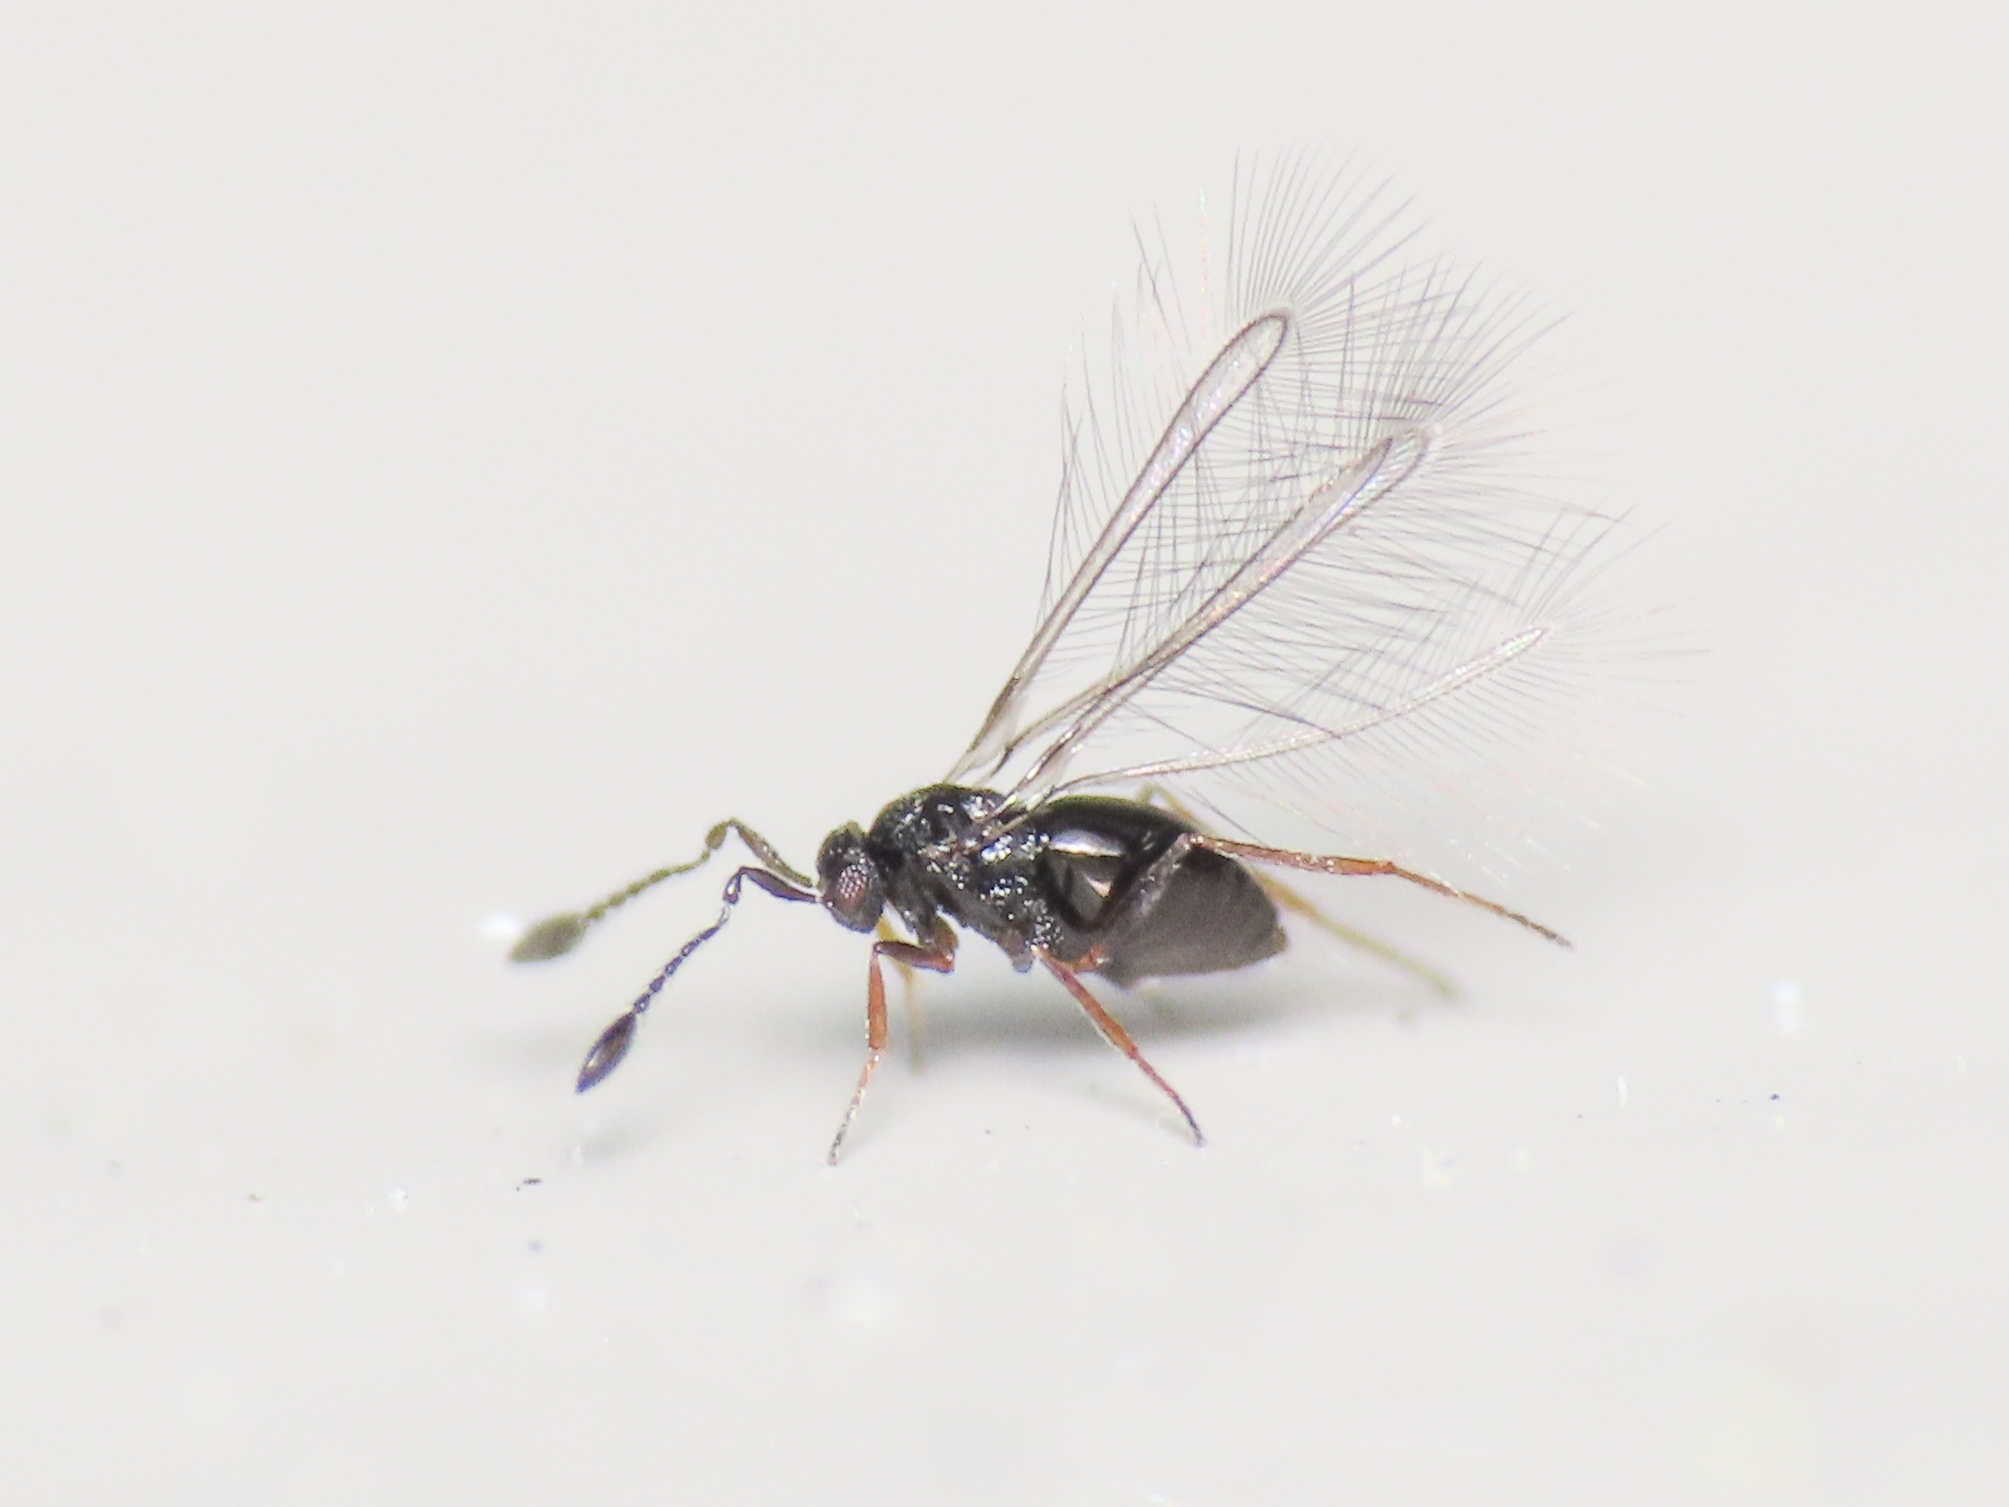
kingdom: Animalia
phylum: Arthropoda
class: Insecta
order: Hymenoptera
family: Mymaridae
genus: Litus
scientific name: Litus cynipseus
